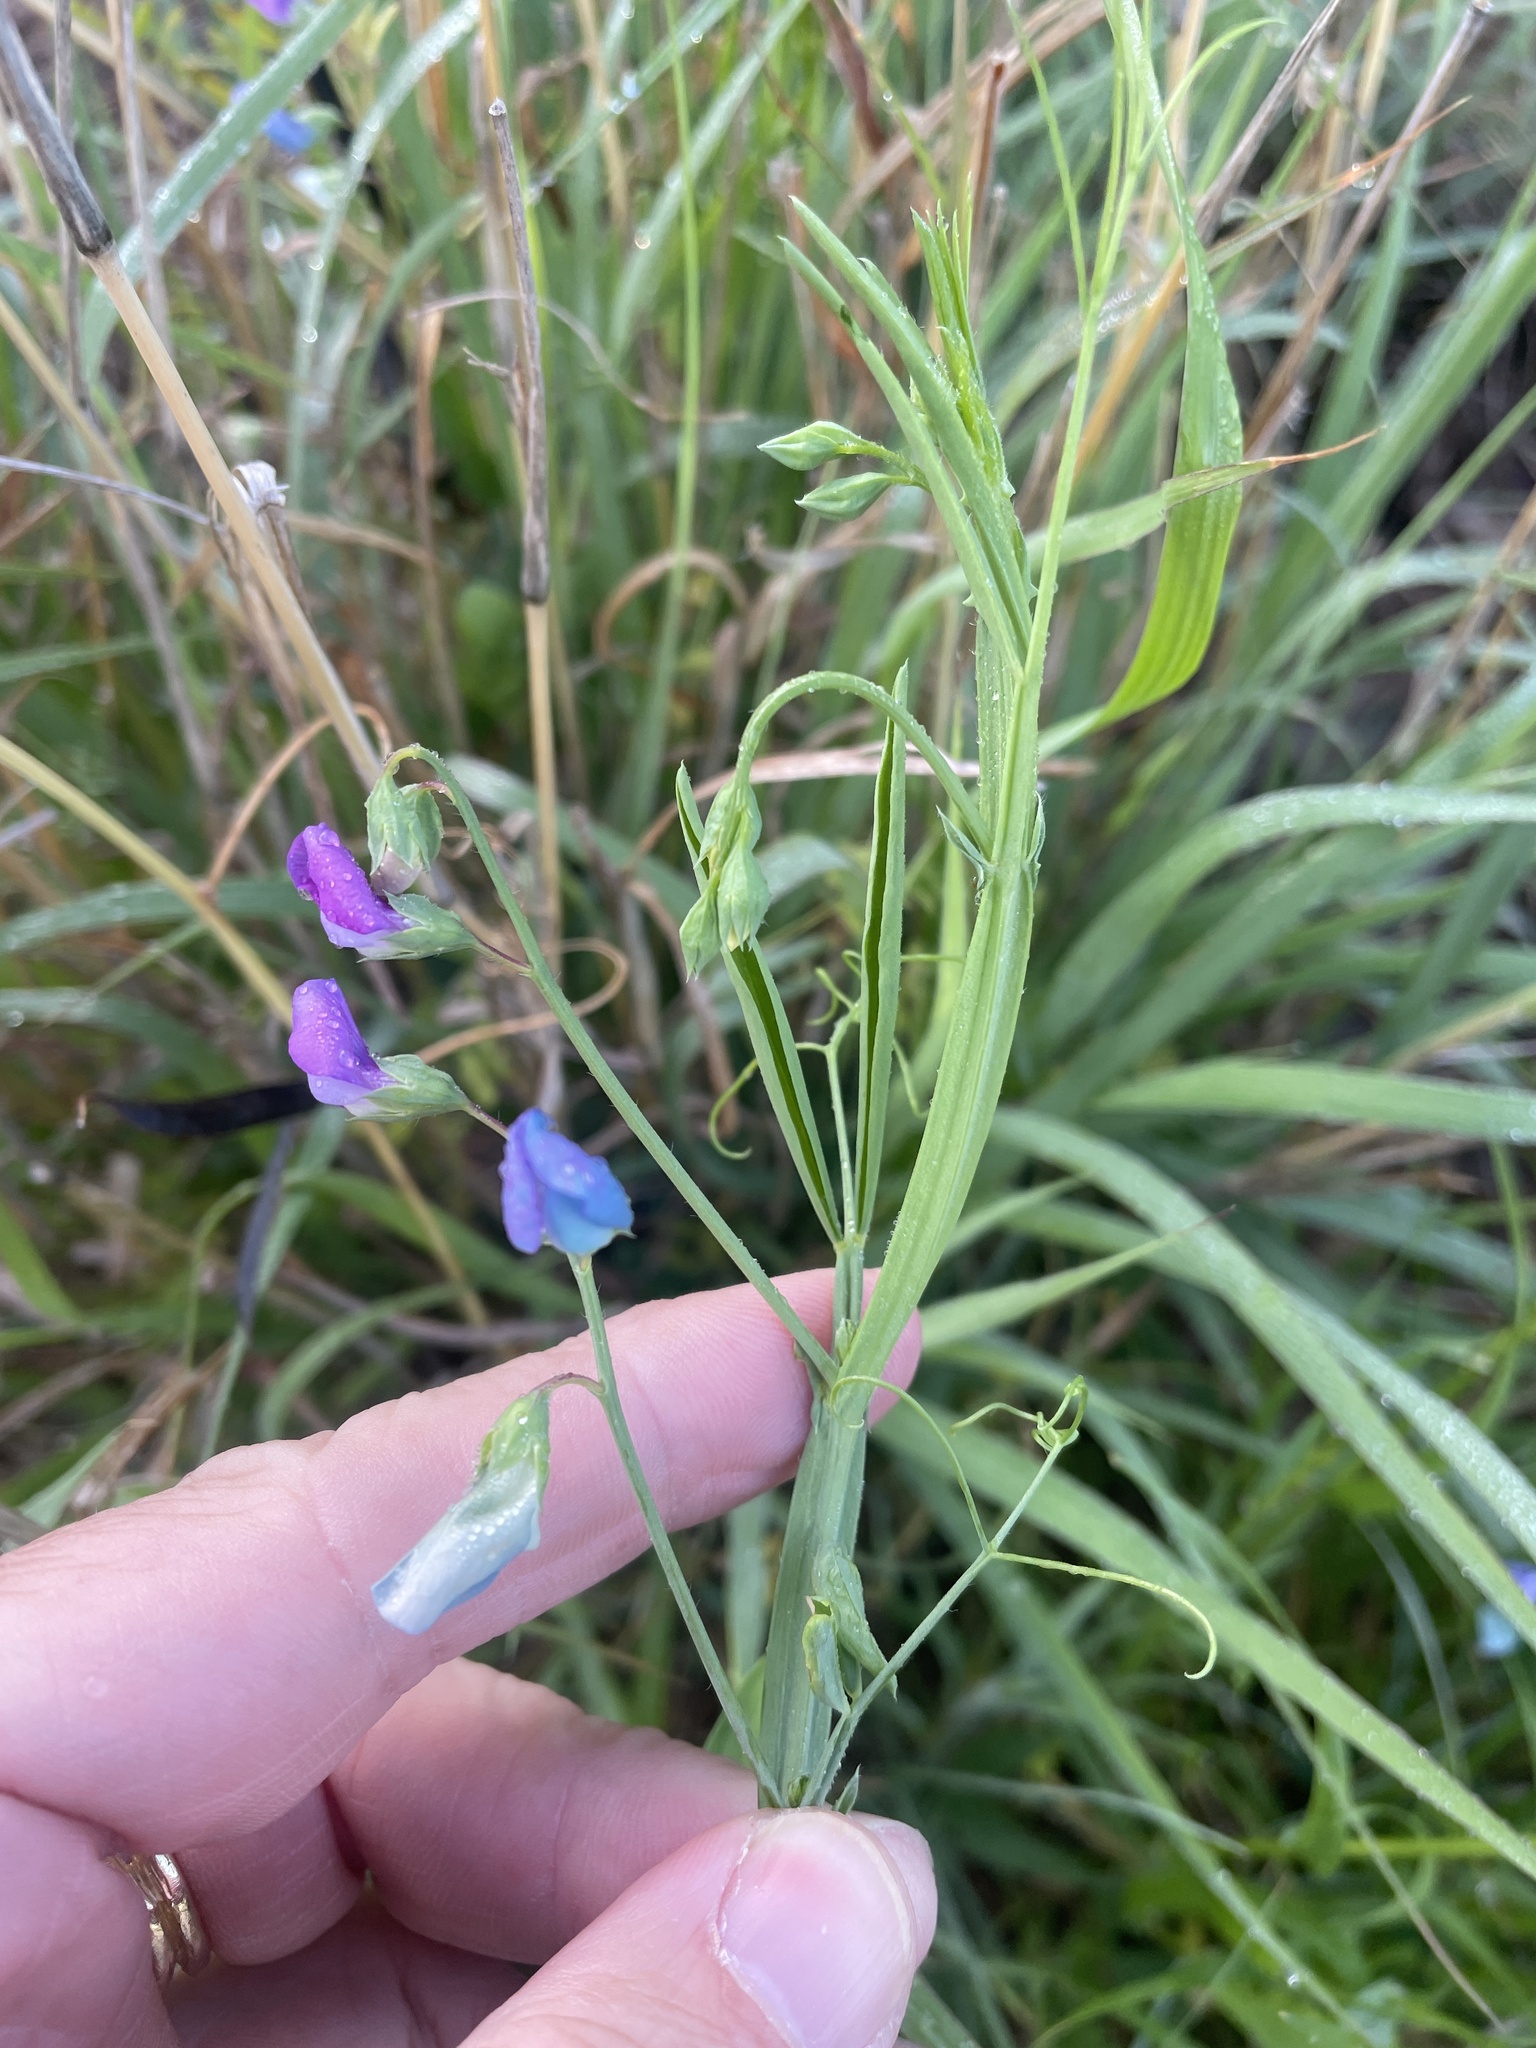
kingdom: Plantae
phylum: Tracheophyta
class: Magnoliopsida
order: Fabales
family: Fabaceae
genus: Lathyrus
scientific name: Lathyrus hirsutus
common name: Hairy vetchling
